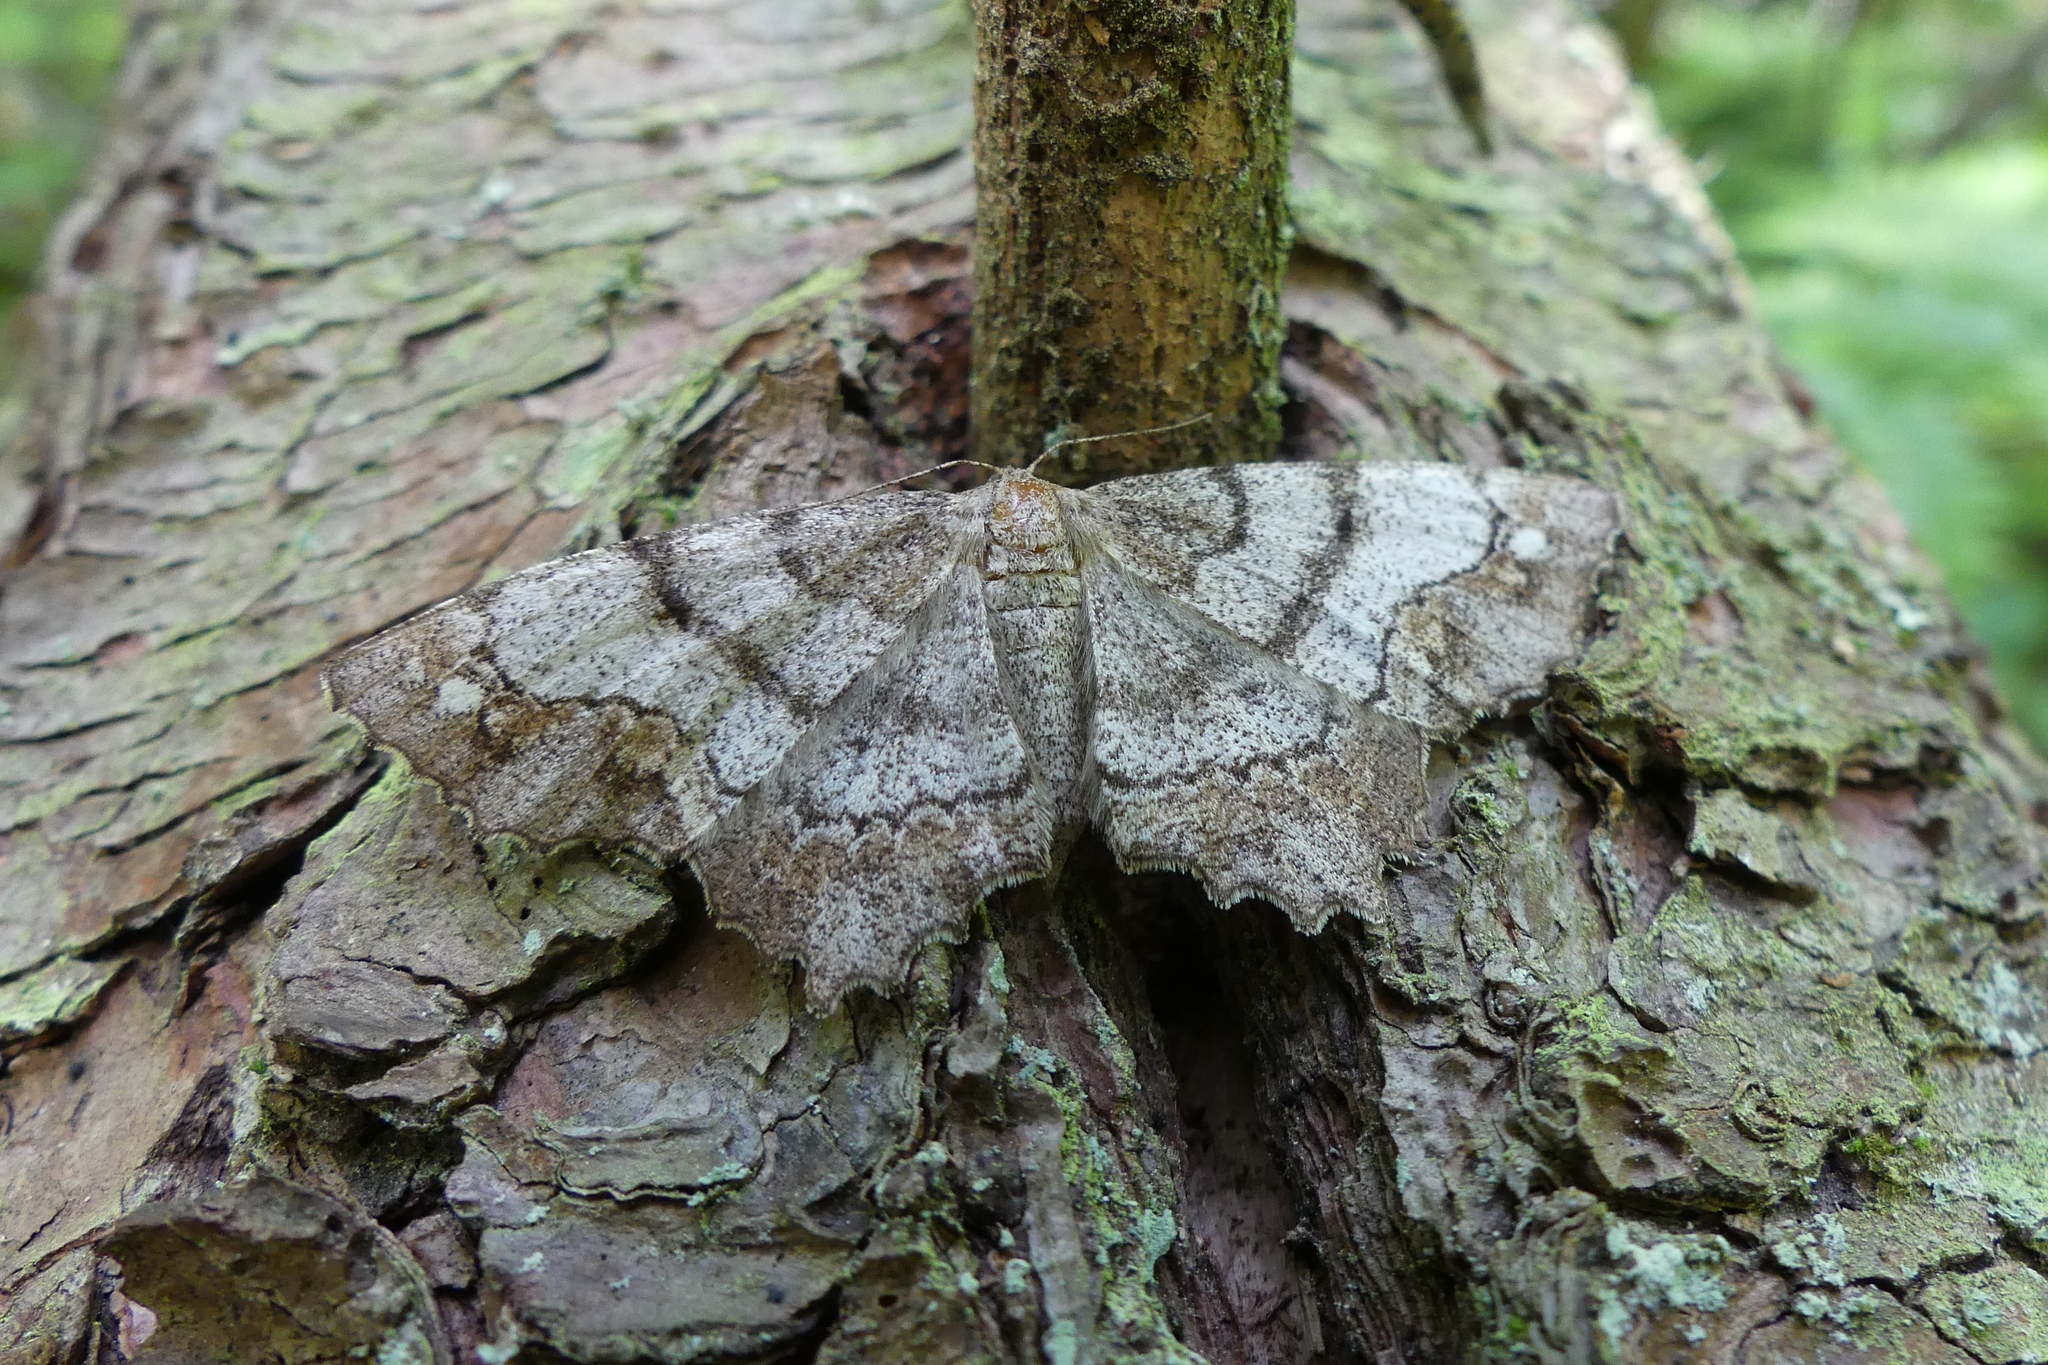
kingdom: Animalia
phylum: Arthropoda
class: Insecta
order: Lepidoptera
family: Geometridae
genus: Hypagyrtis
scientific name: Hypagyrtis
